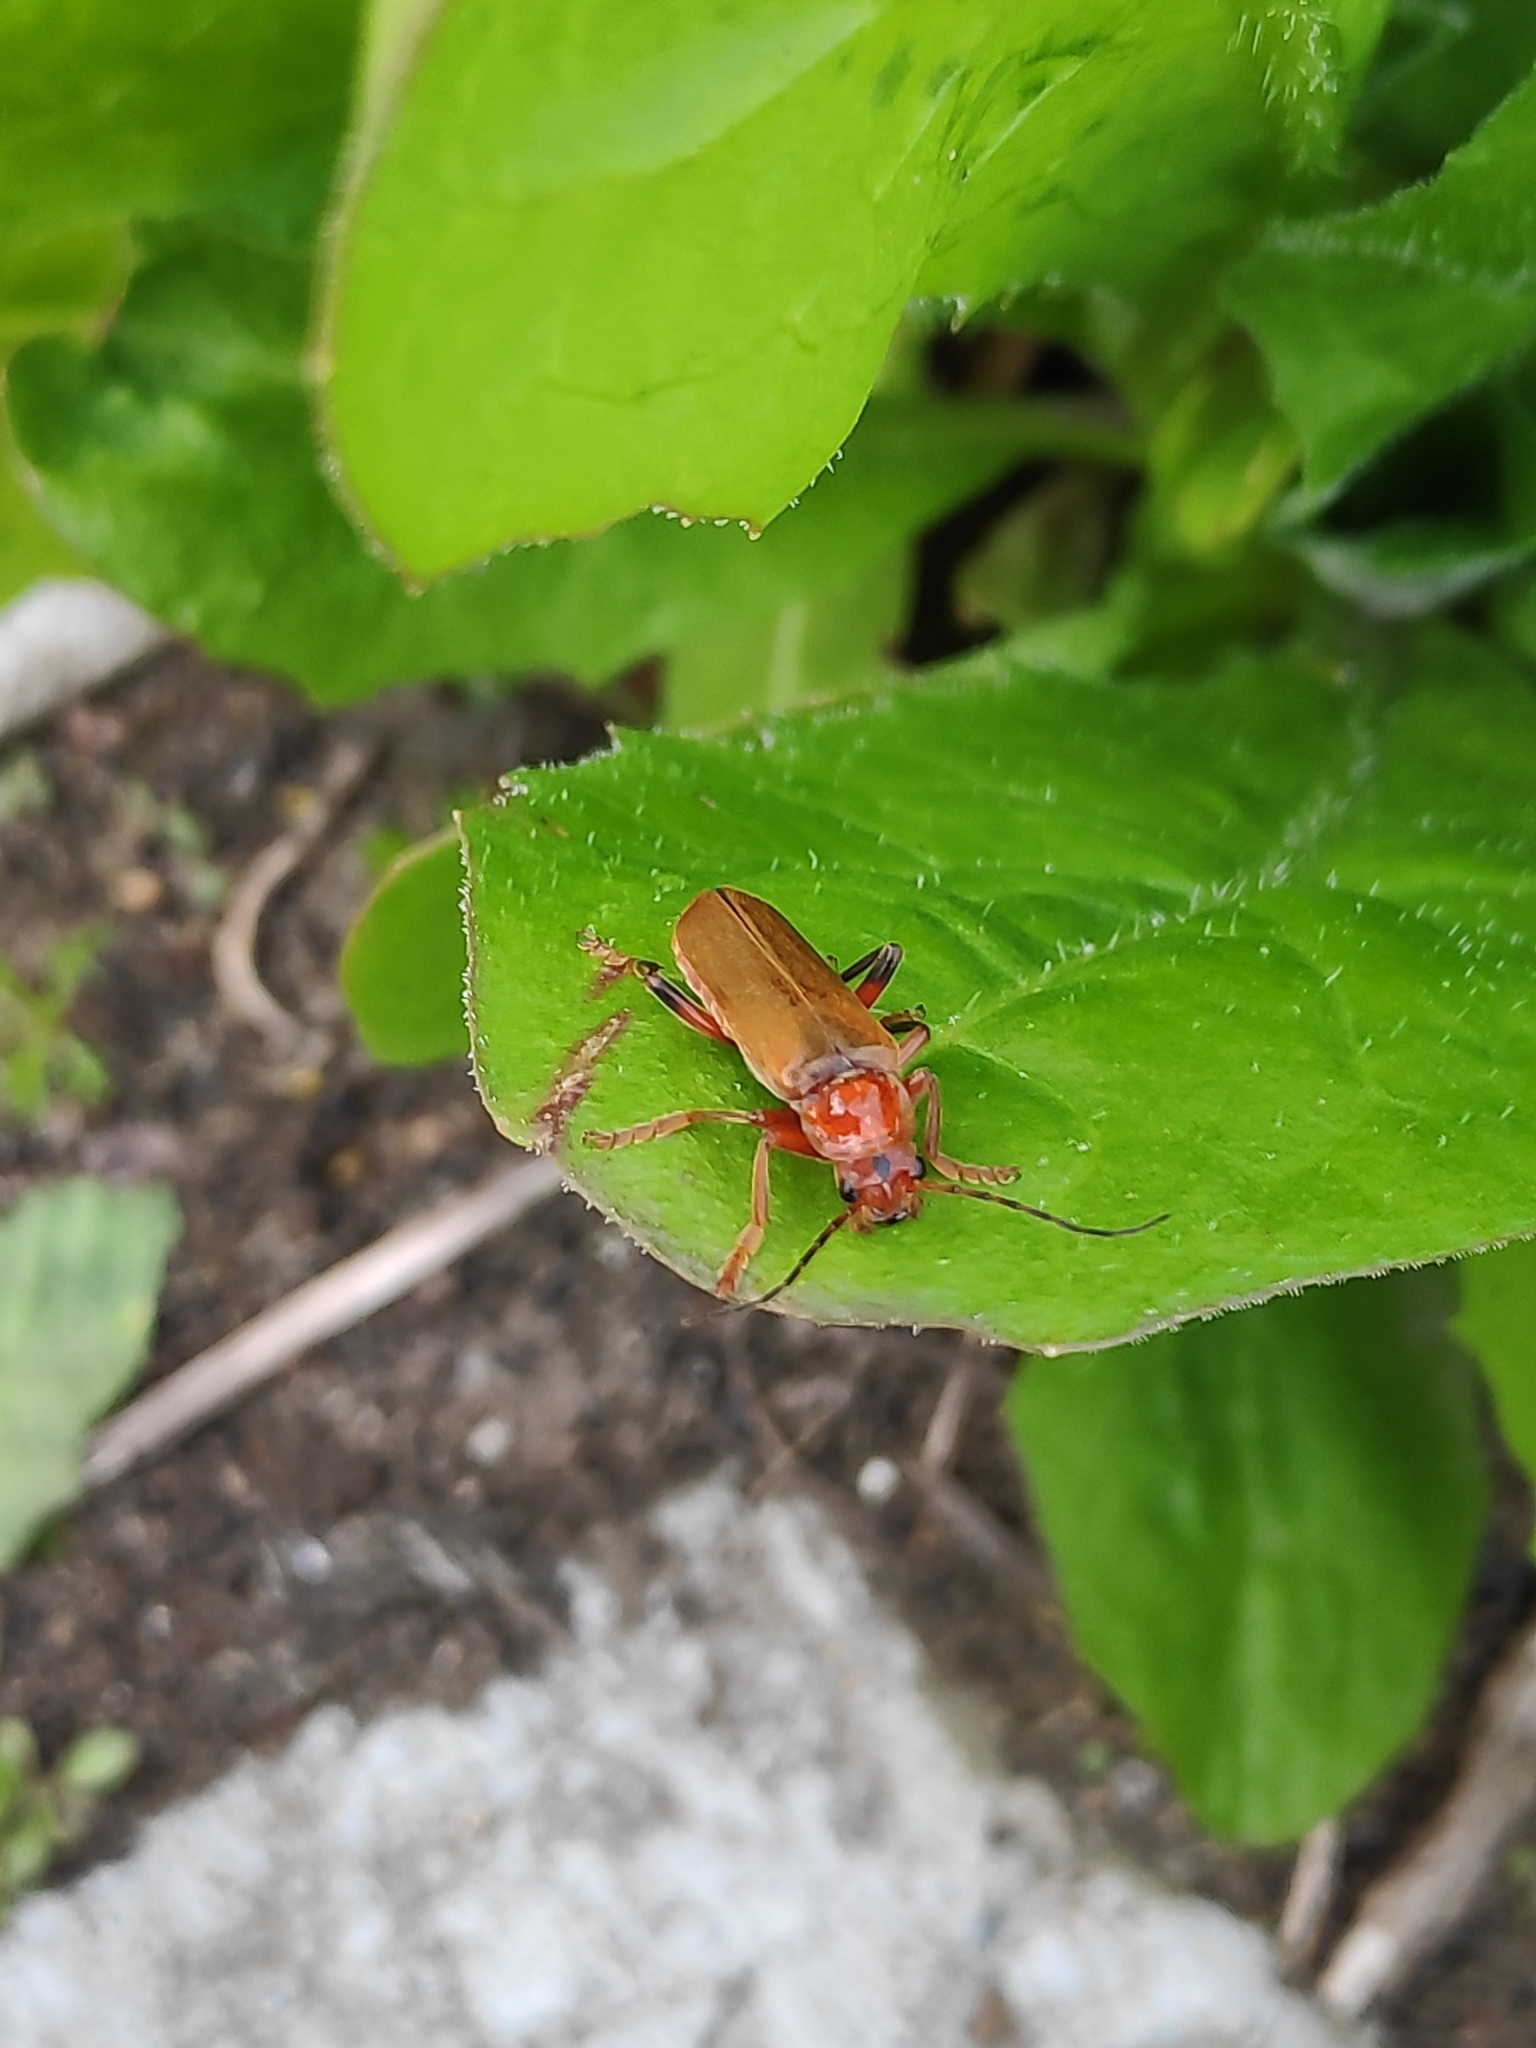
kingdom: Animalia
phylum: Arthropoda
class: Insecta
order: Coleoptera
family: Cantharidae
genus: Cantharis
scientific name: Cantharis livida
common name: Livid soldier beetle
